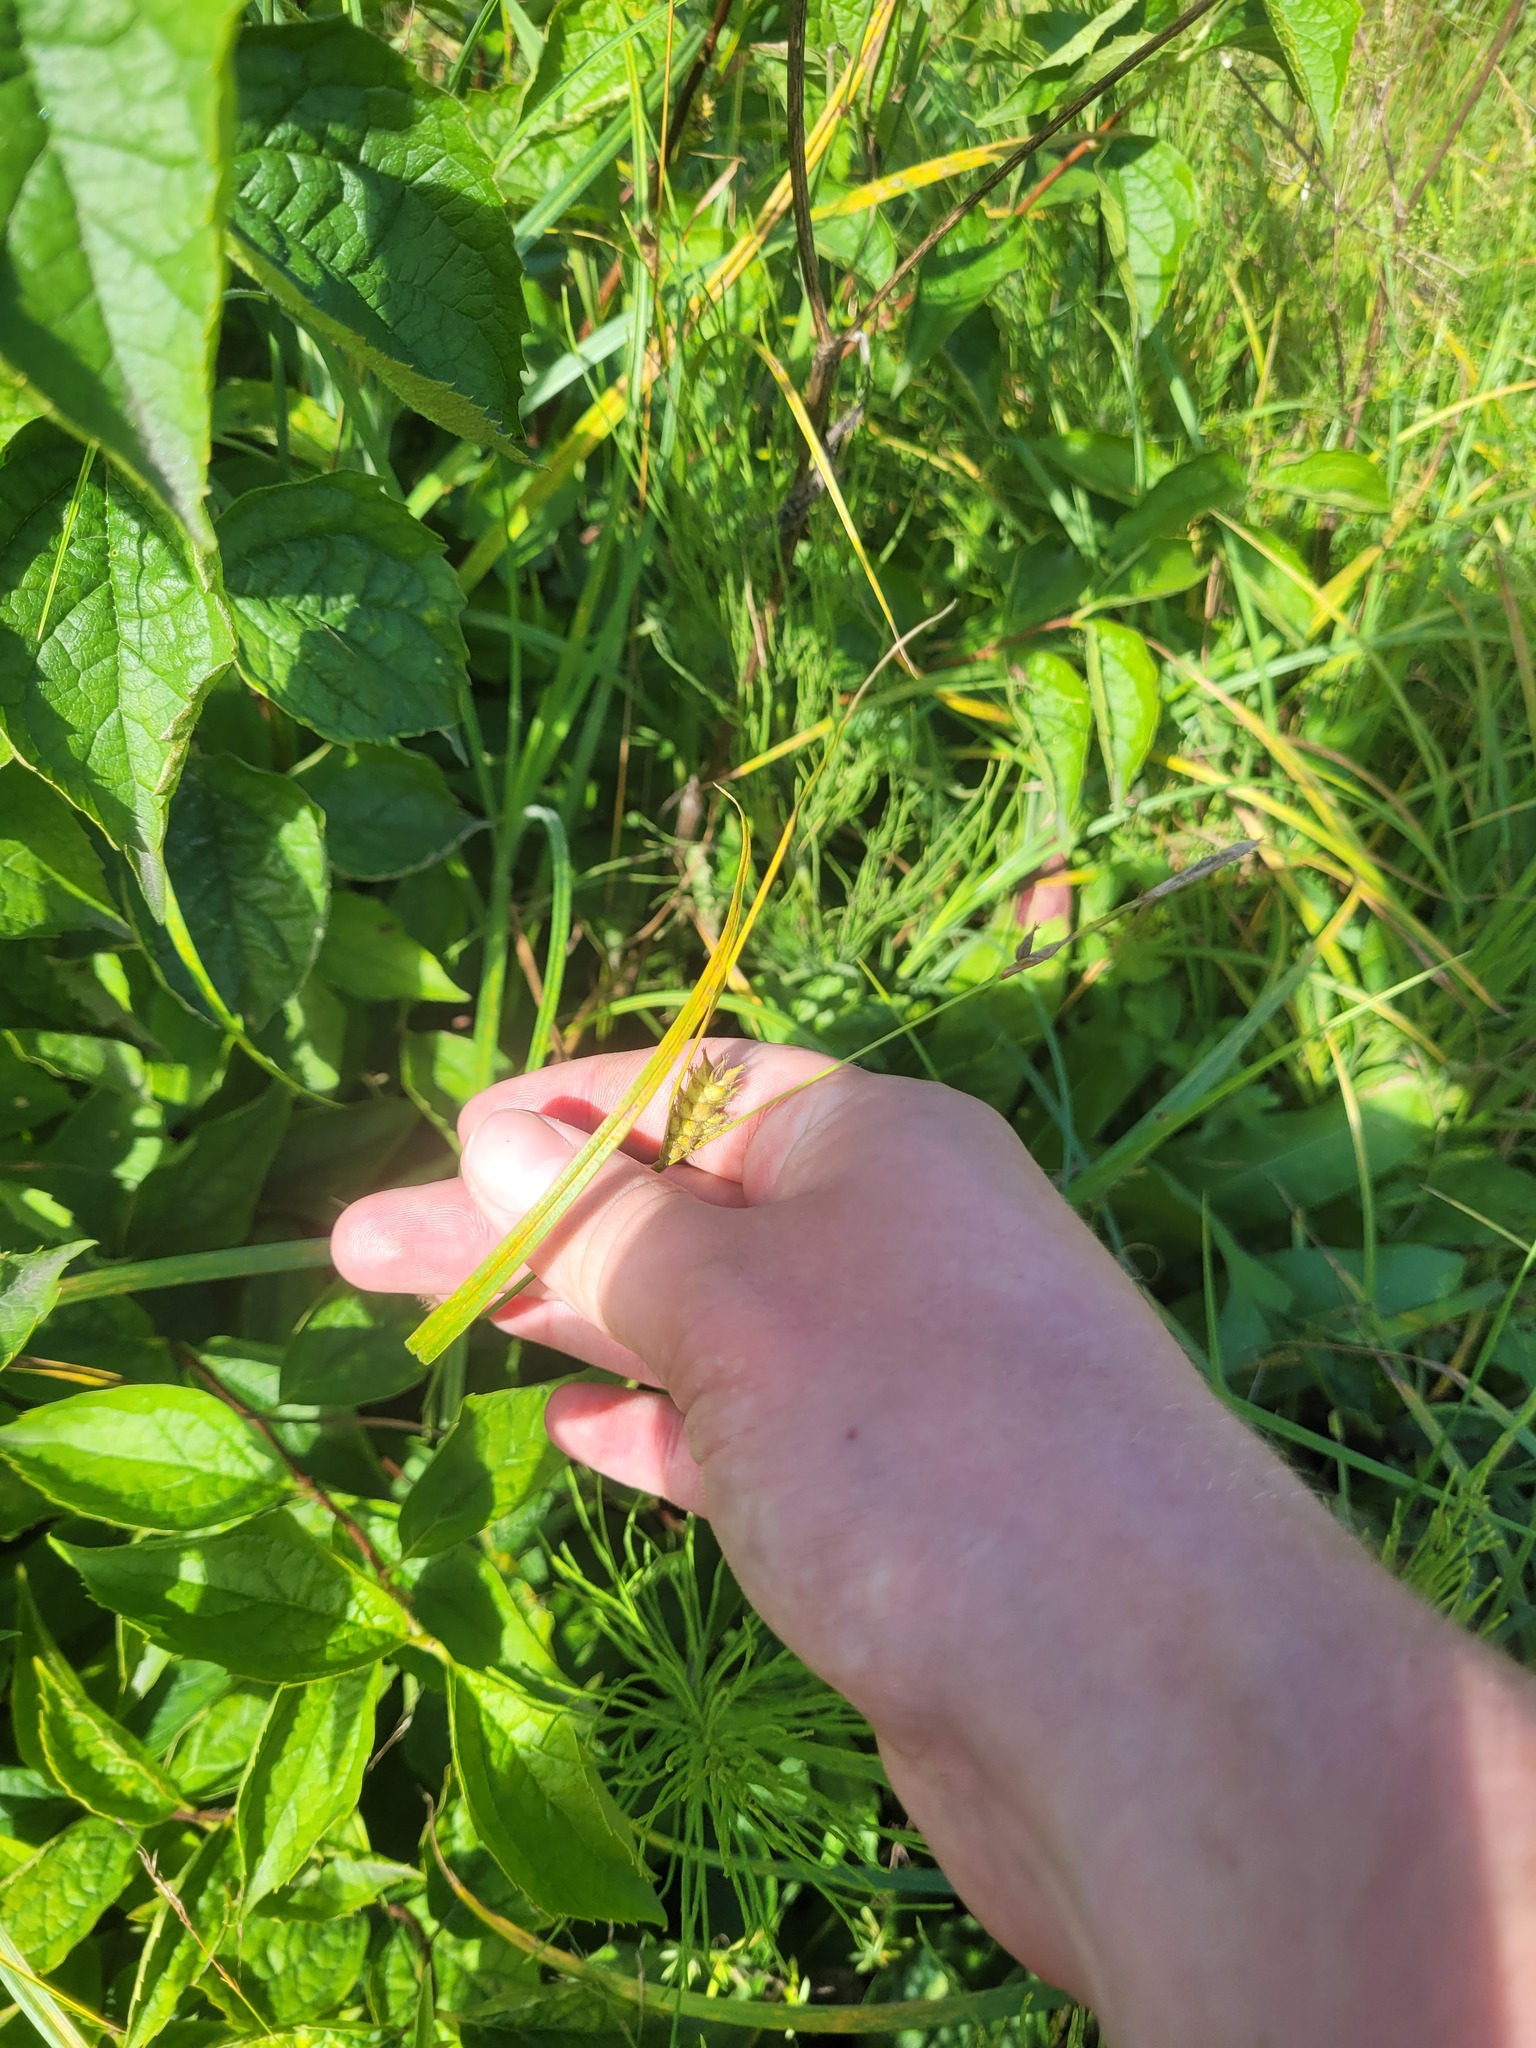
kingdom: Plantae
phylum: Tracheophyta
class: Liliopsida
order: Poales
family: Cyperaceae
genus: Carex
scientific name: Carex hirta
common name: Hairy sedge
